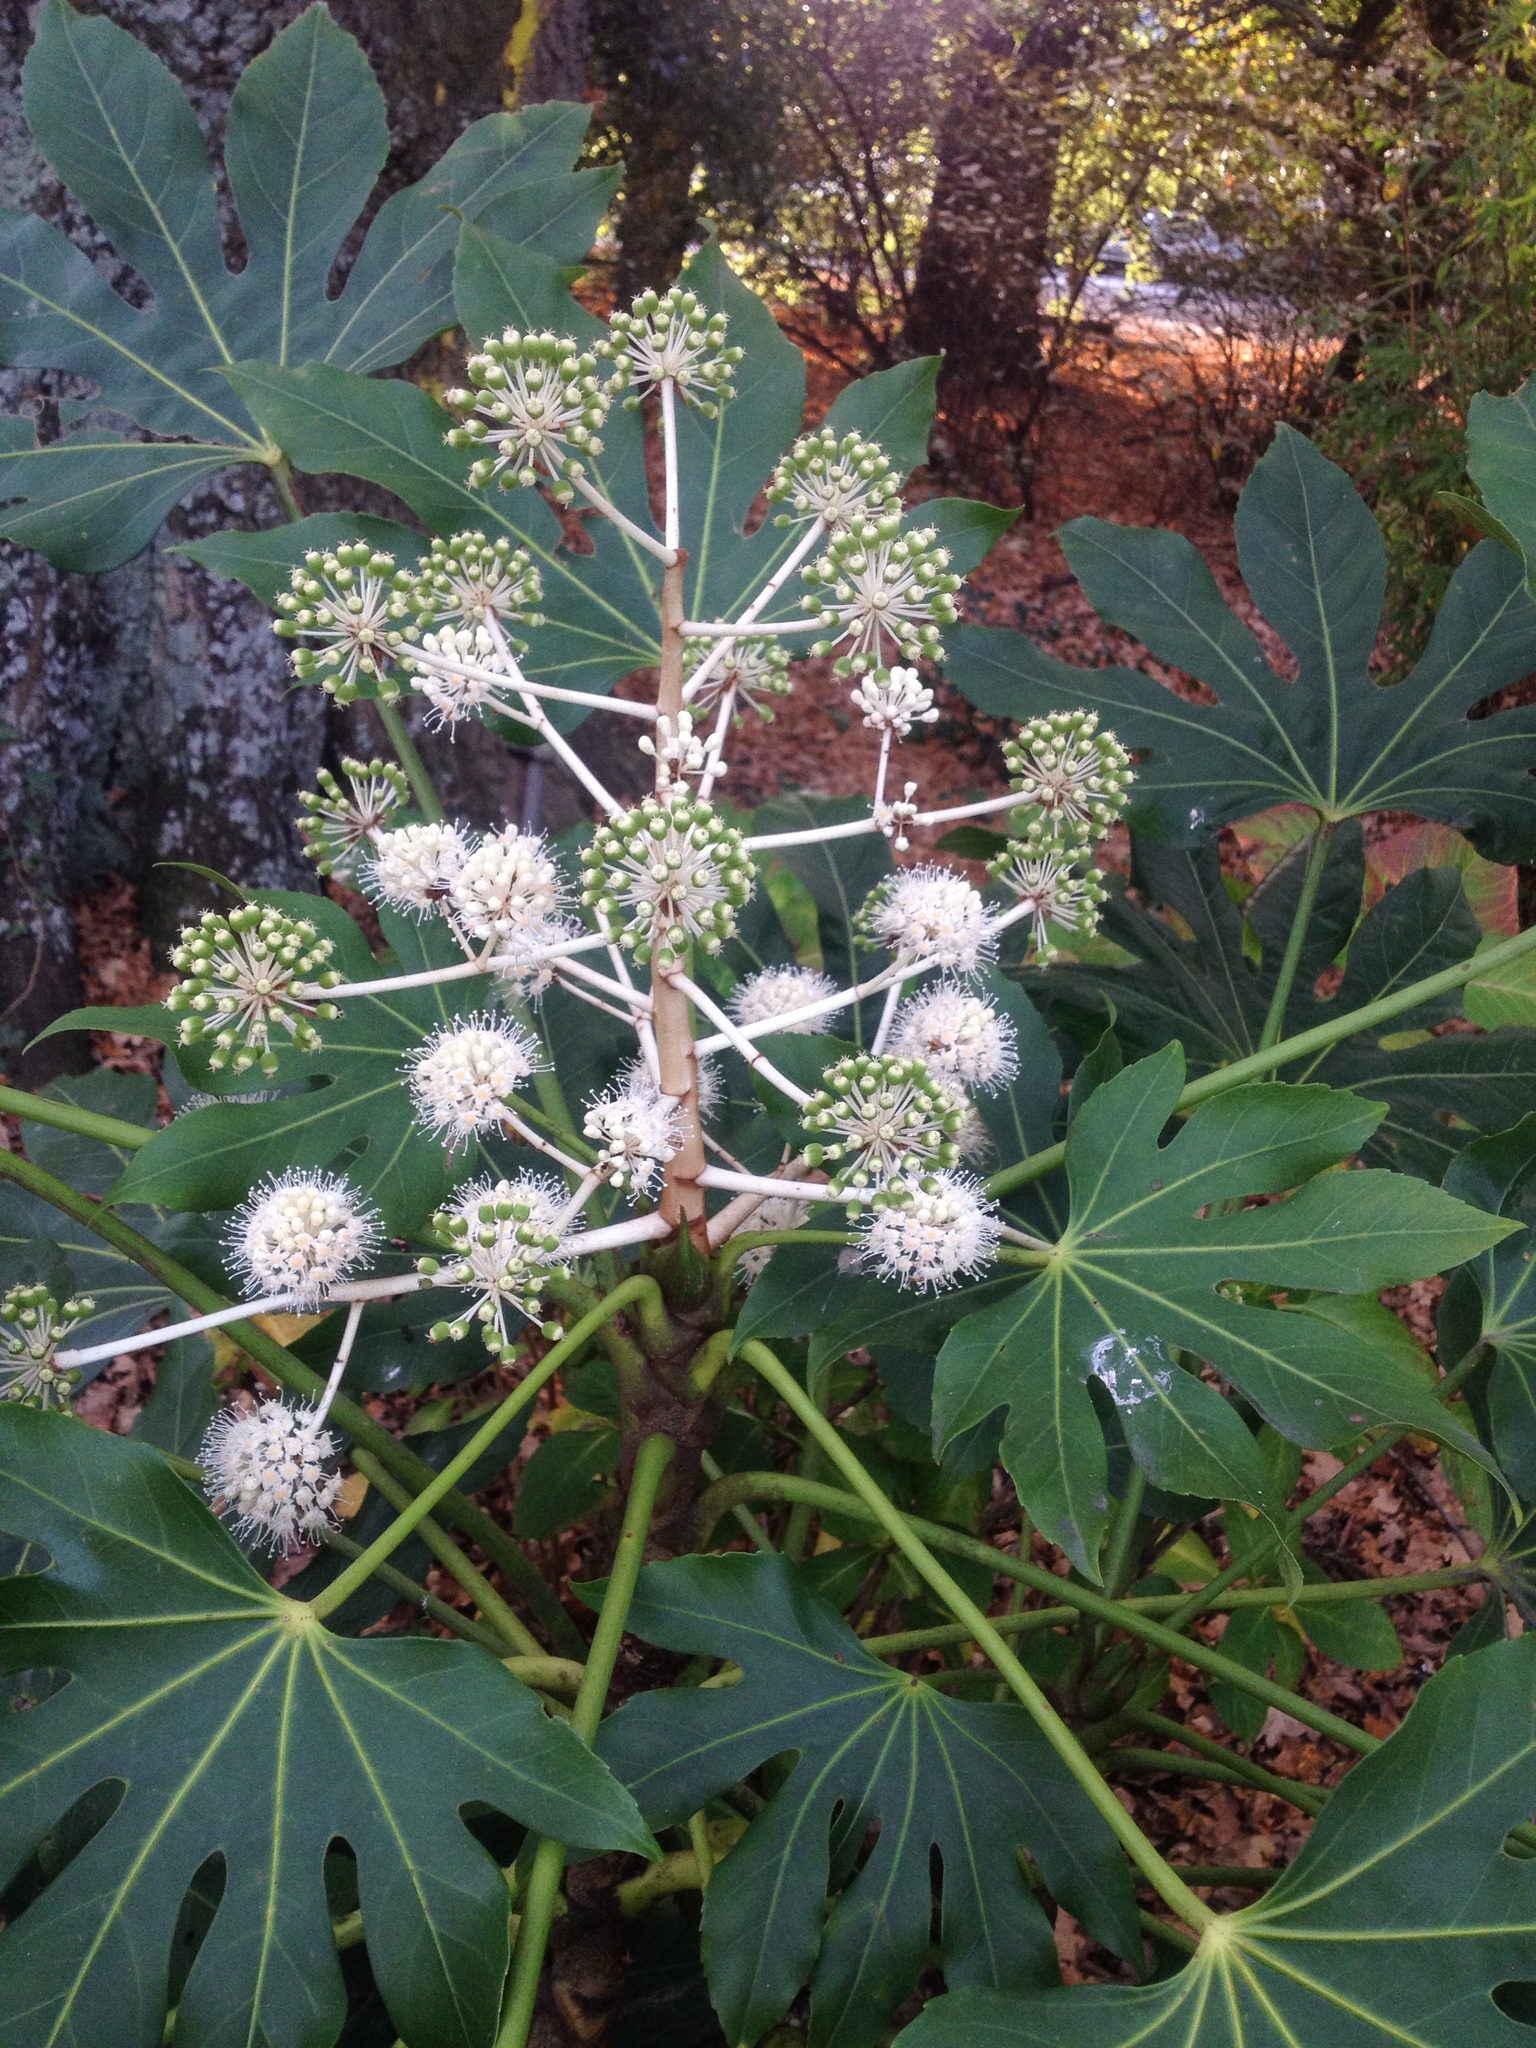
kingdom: Plantae
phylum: Tracheophyta
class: Magnoliopsida
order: Apiales
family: Araliaceae
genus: Fatsia
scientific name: Fatsia japonica
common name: Fatsia
